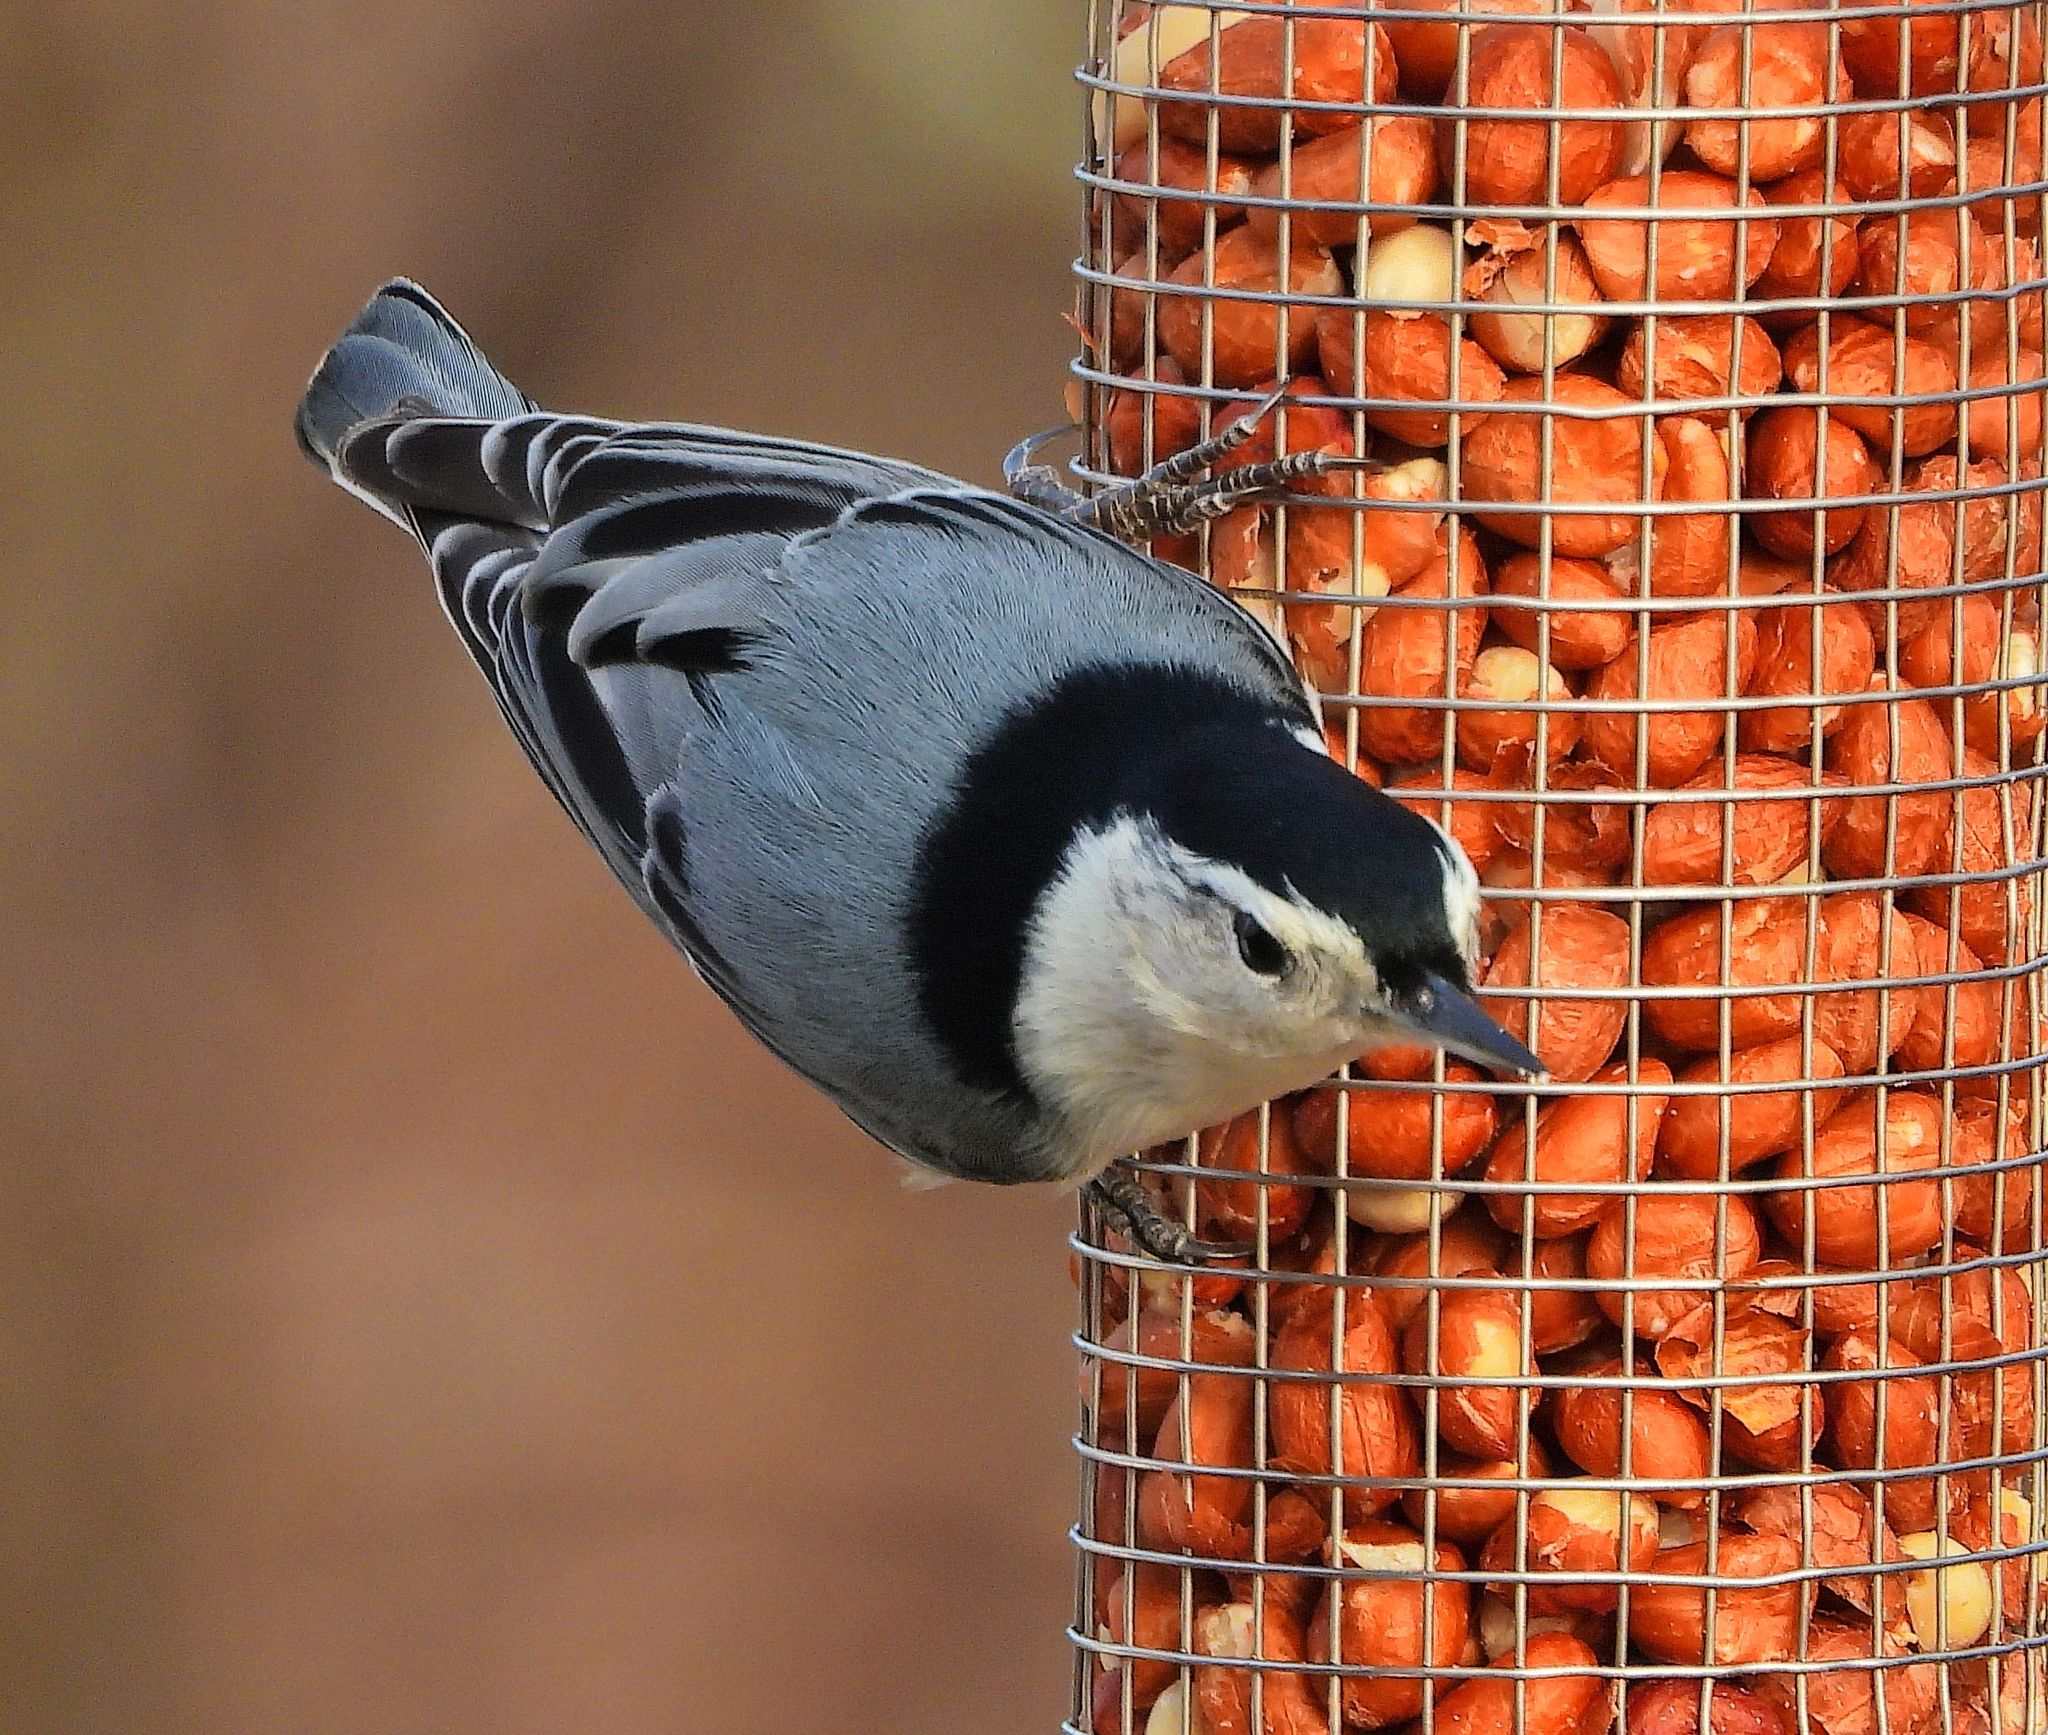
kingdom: Animalia
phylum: Chordata
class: Aves
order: Passeriformes
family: Sittidae
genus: Sitta
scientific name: Sitta carolinensis
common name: White-breasted nuthatch
